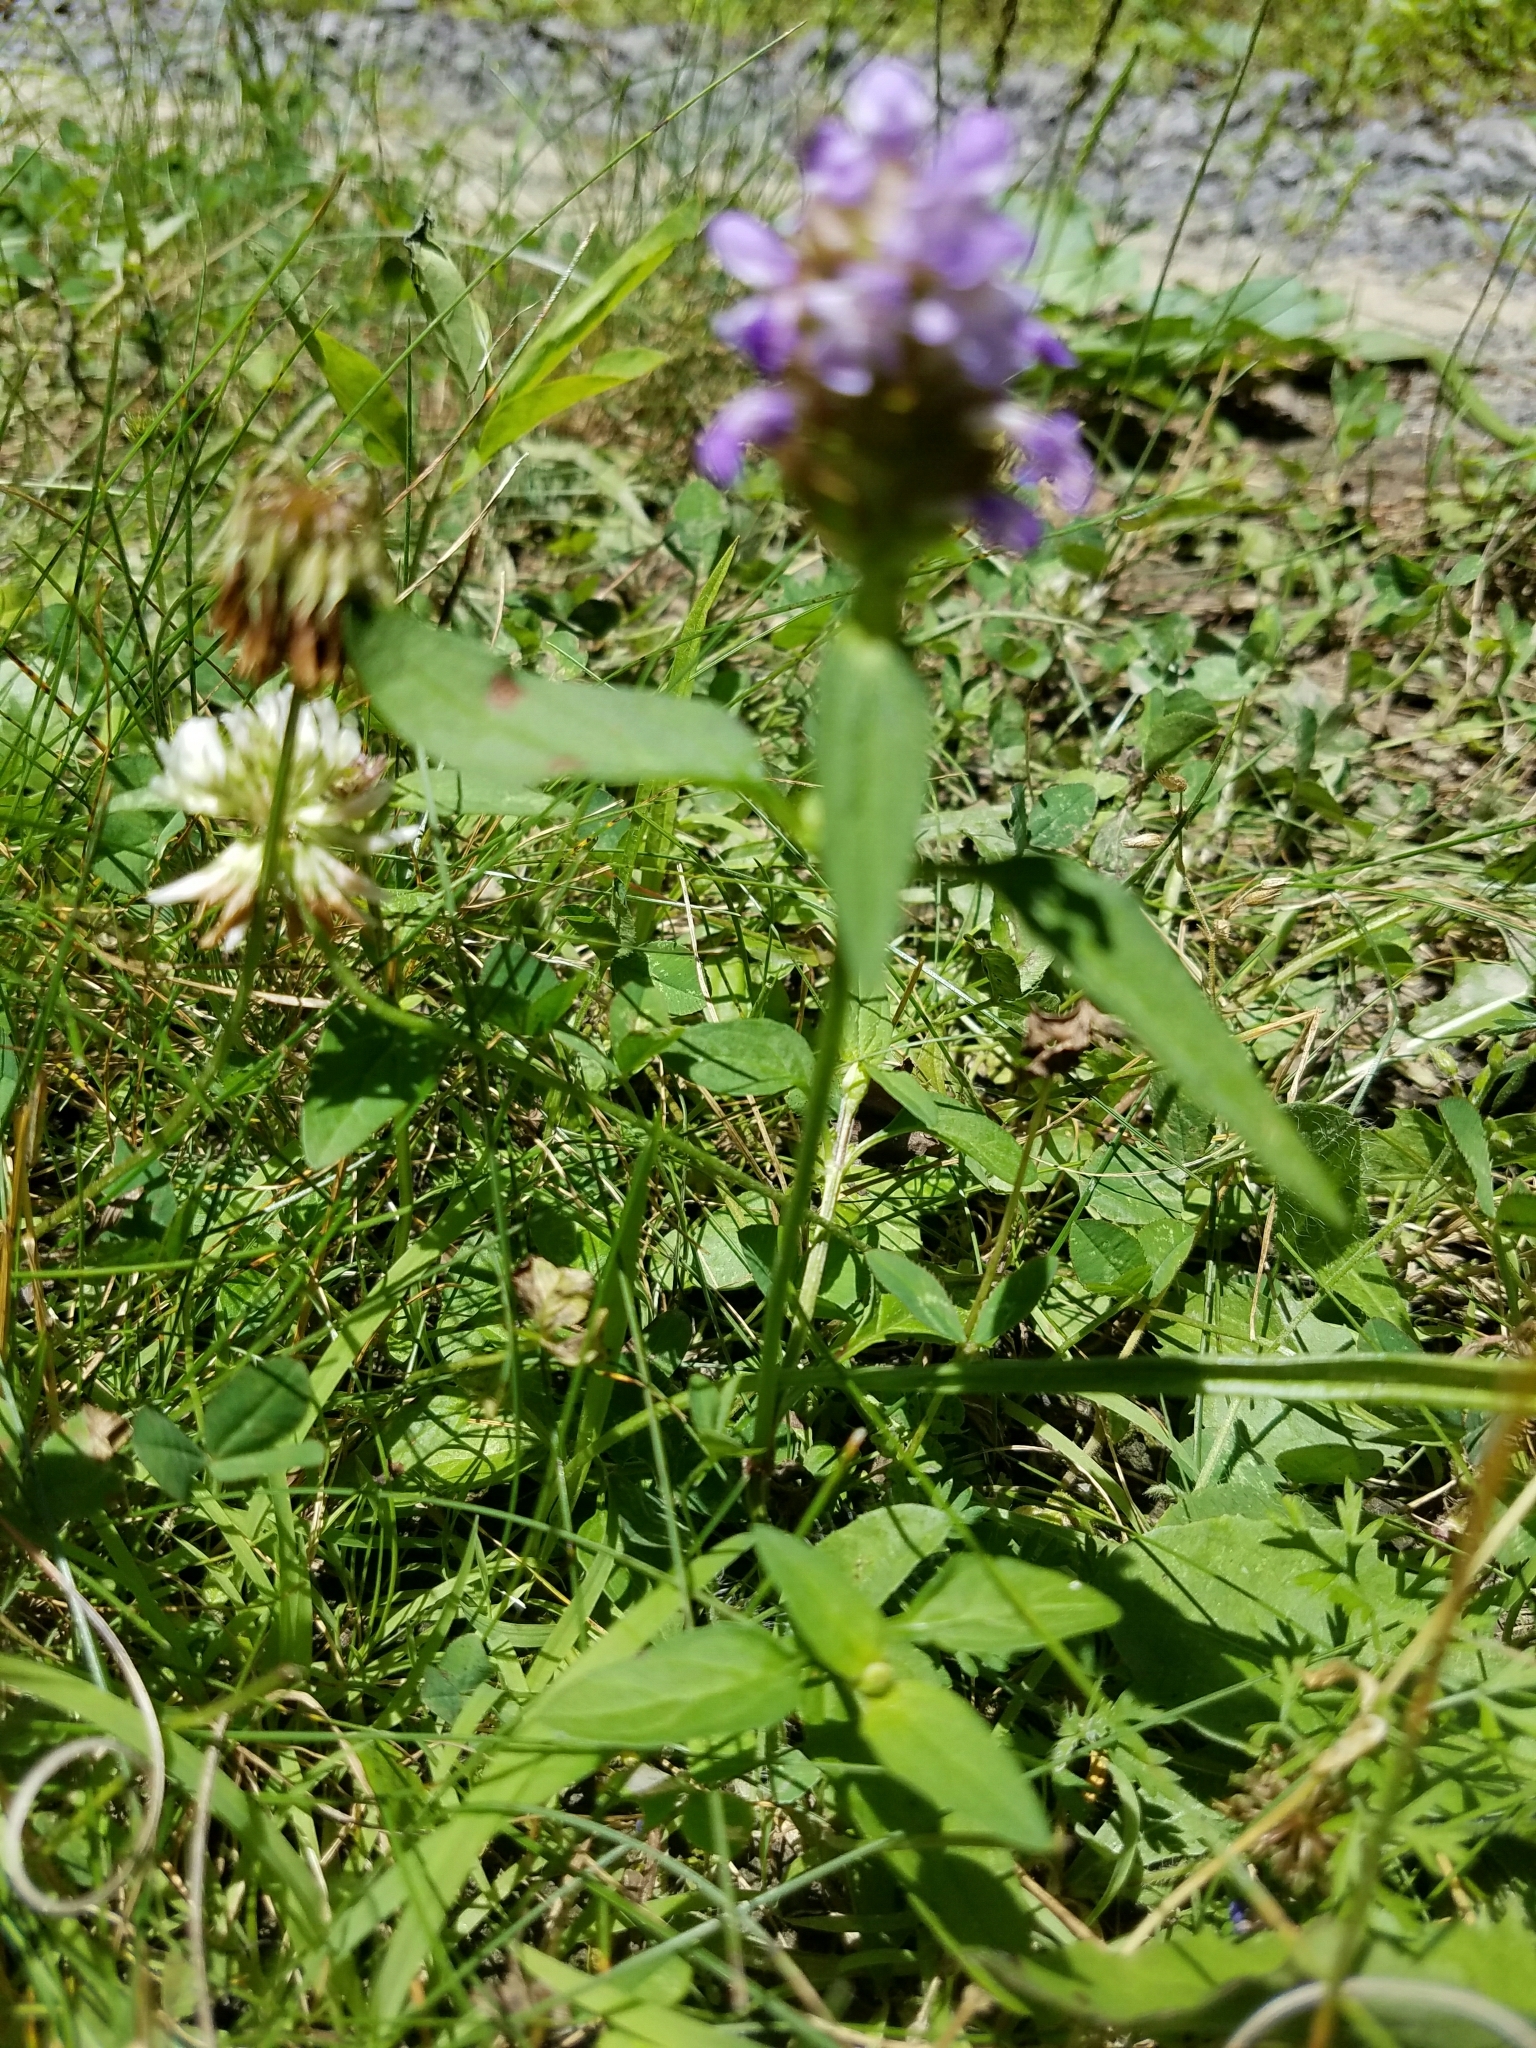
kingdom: Plantae
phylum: Tracheophyta
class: Magnoliopsida
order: Lamiales
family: Lamiaceae
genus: Prunella
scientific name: Prunella vulgaris
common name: Heal-all
